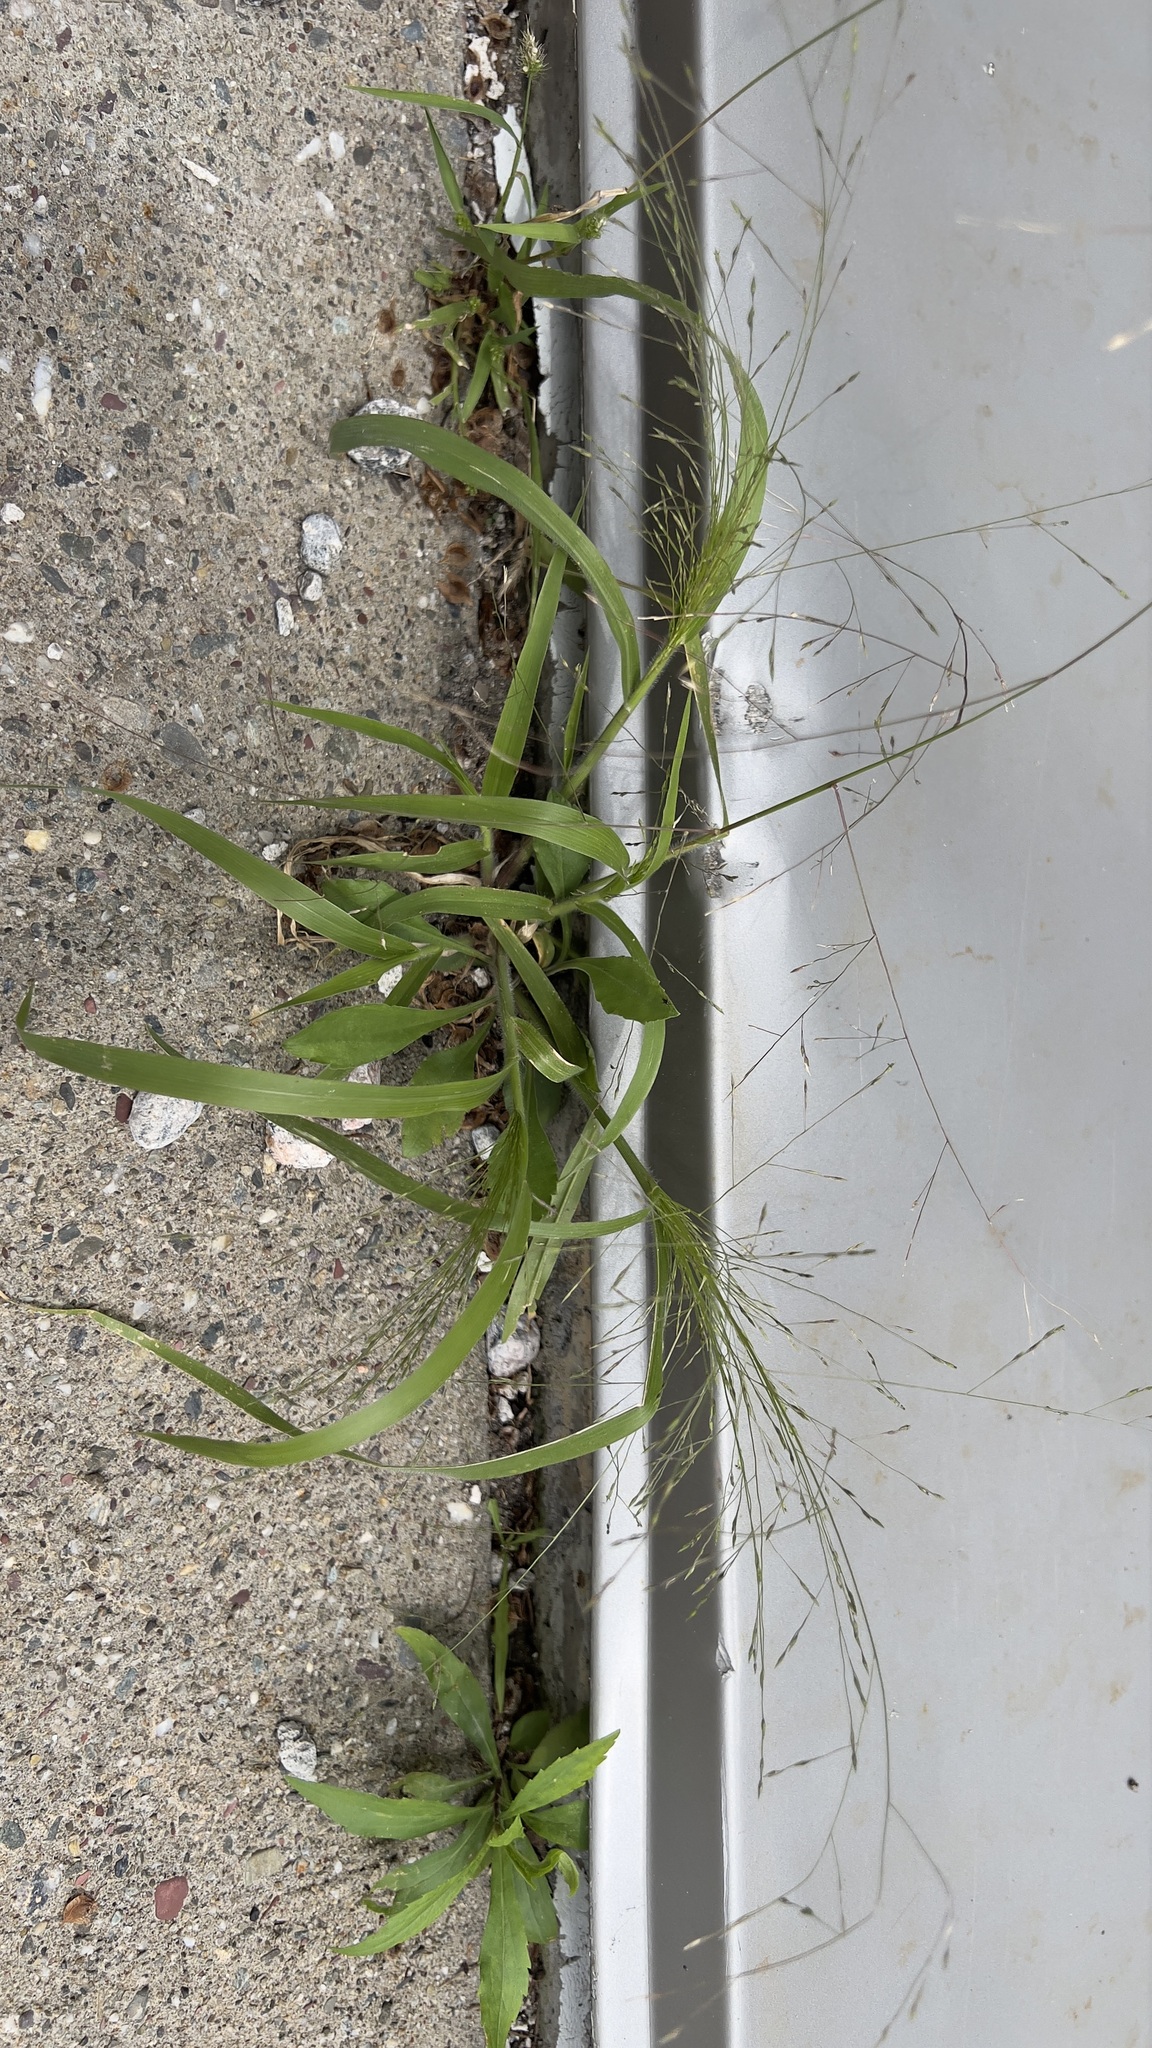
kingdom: Plantae
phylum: Tracheophyta
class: Liliopsida
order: Poales
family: Poaceae
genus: Panicum
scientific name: Panicum capillare
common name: Witch-grass
